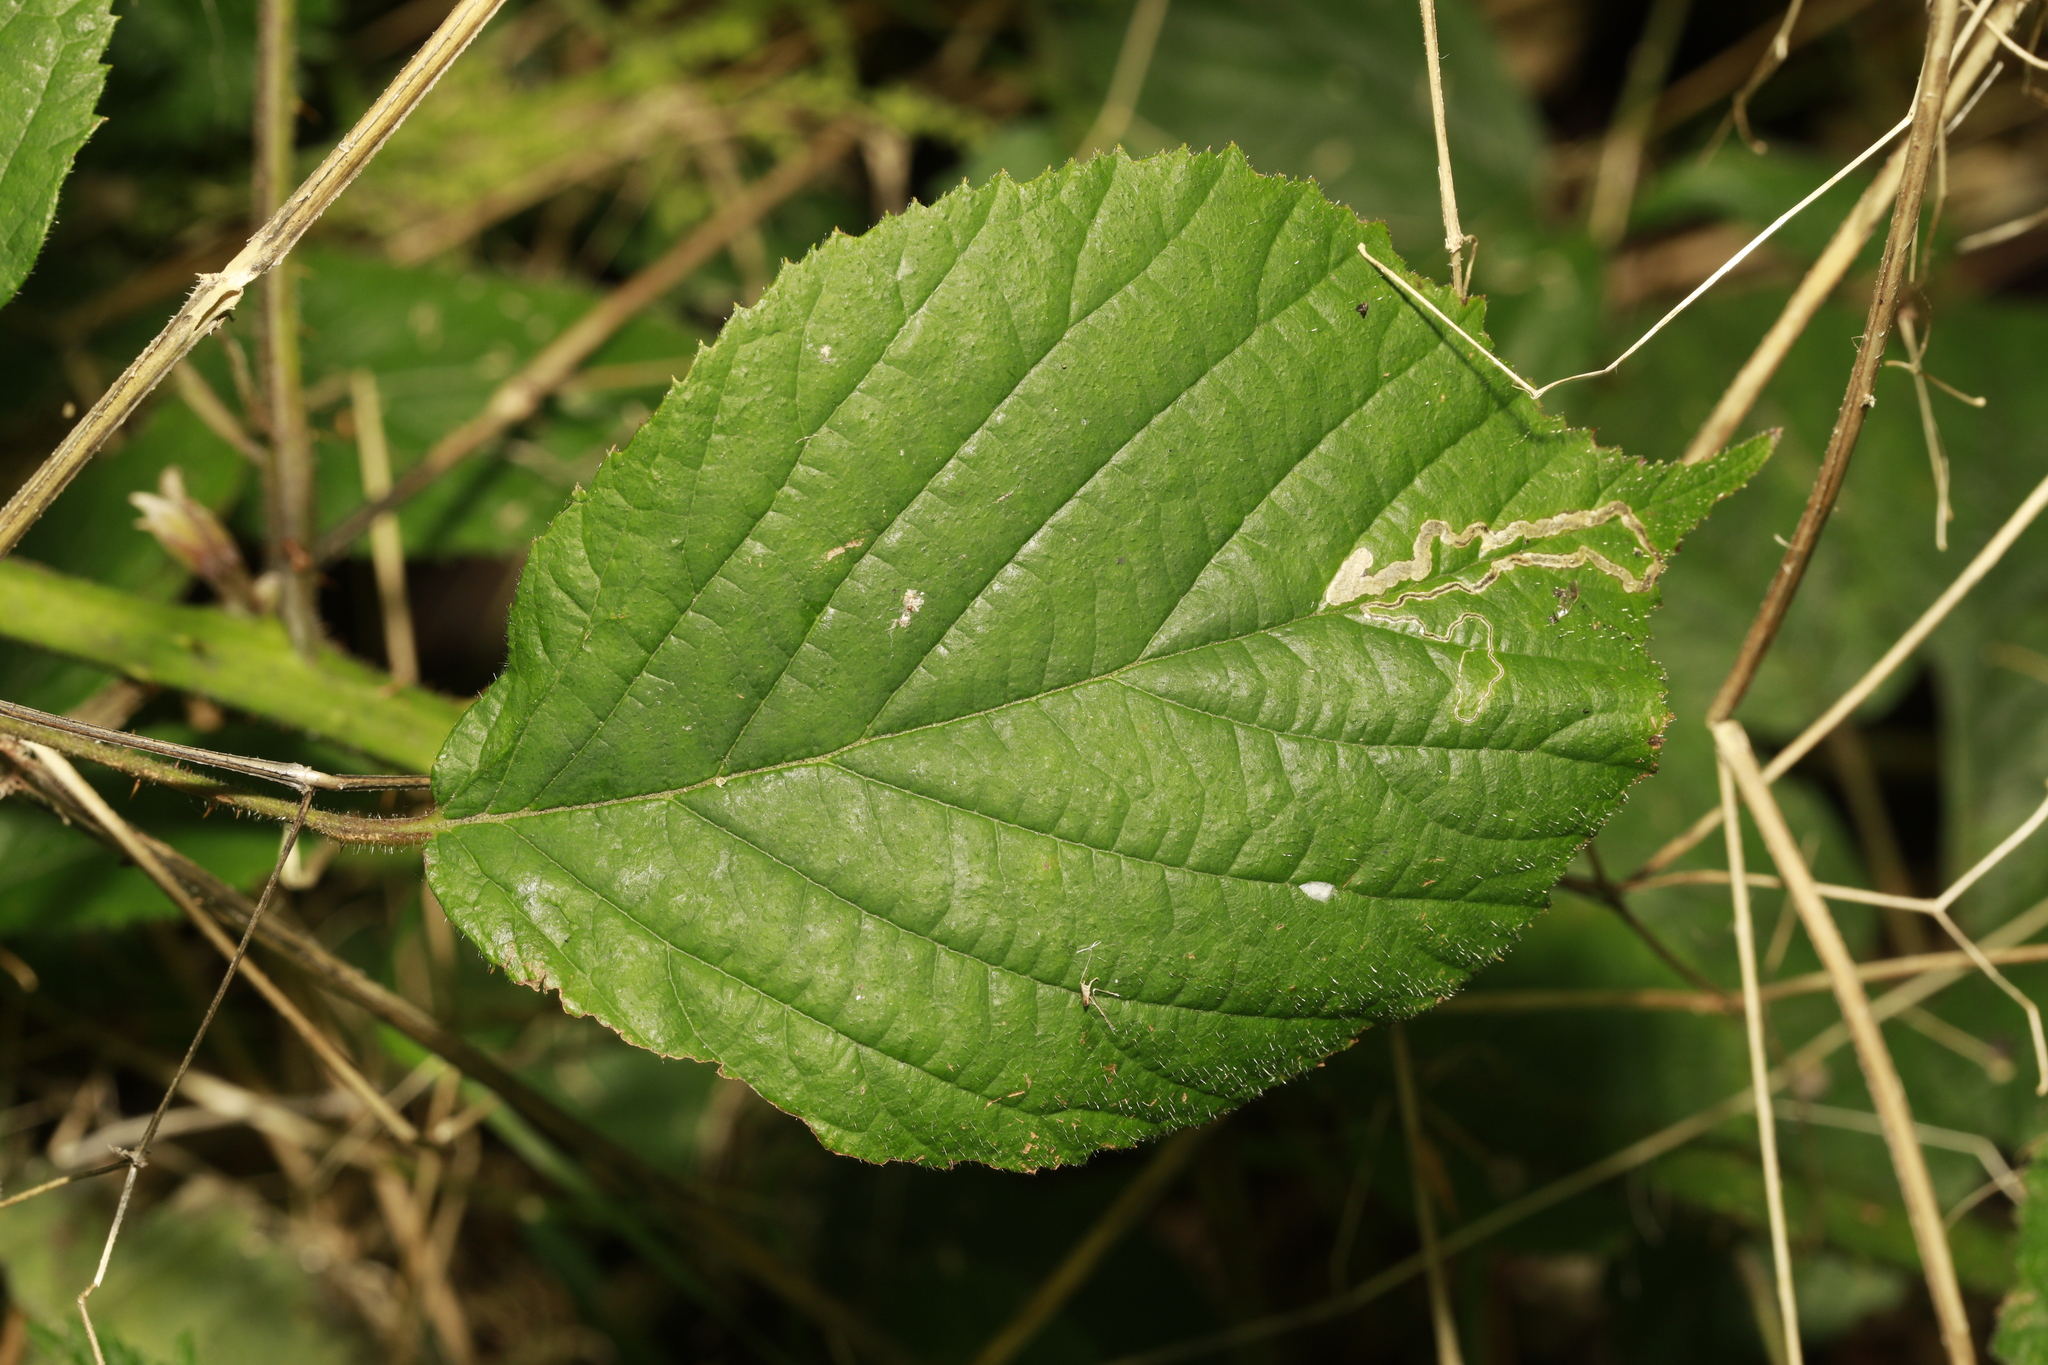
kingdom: Animalia
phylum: Arthropoda
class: Insecta
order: Lepidoptera
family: Nepticulidae
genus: Stigmella
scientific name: Stigmella aurella
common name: Golden pigmy
